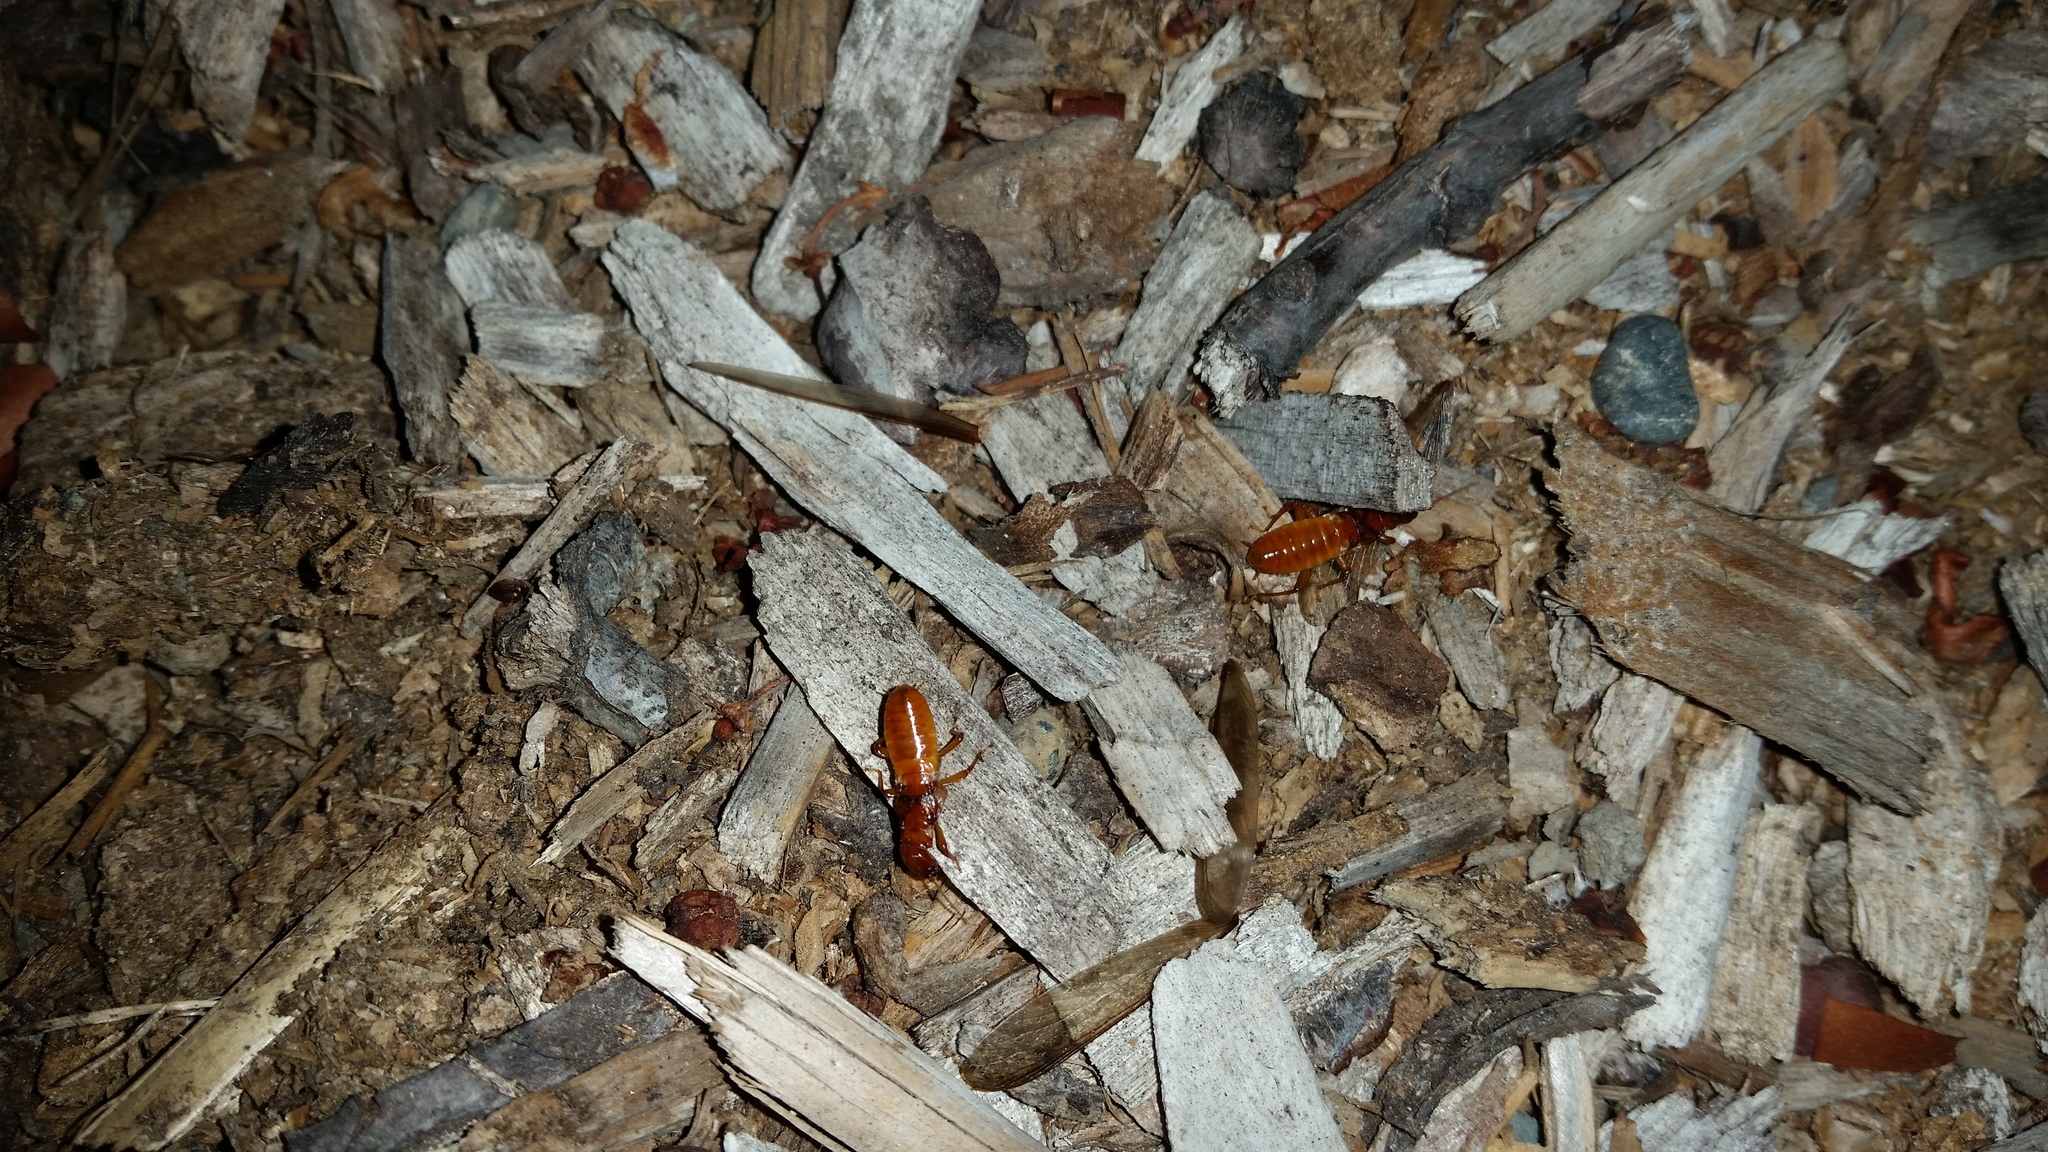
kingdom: Animalia
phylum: Arthropoda
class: Insecta
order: Blattodea
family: Archotermopsidae
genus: Zootermopsis
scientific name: Zootermopsis angusticollis
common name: Rottenwood termite
